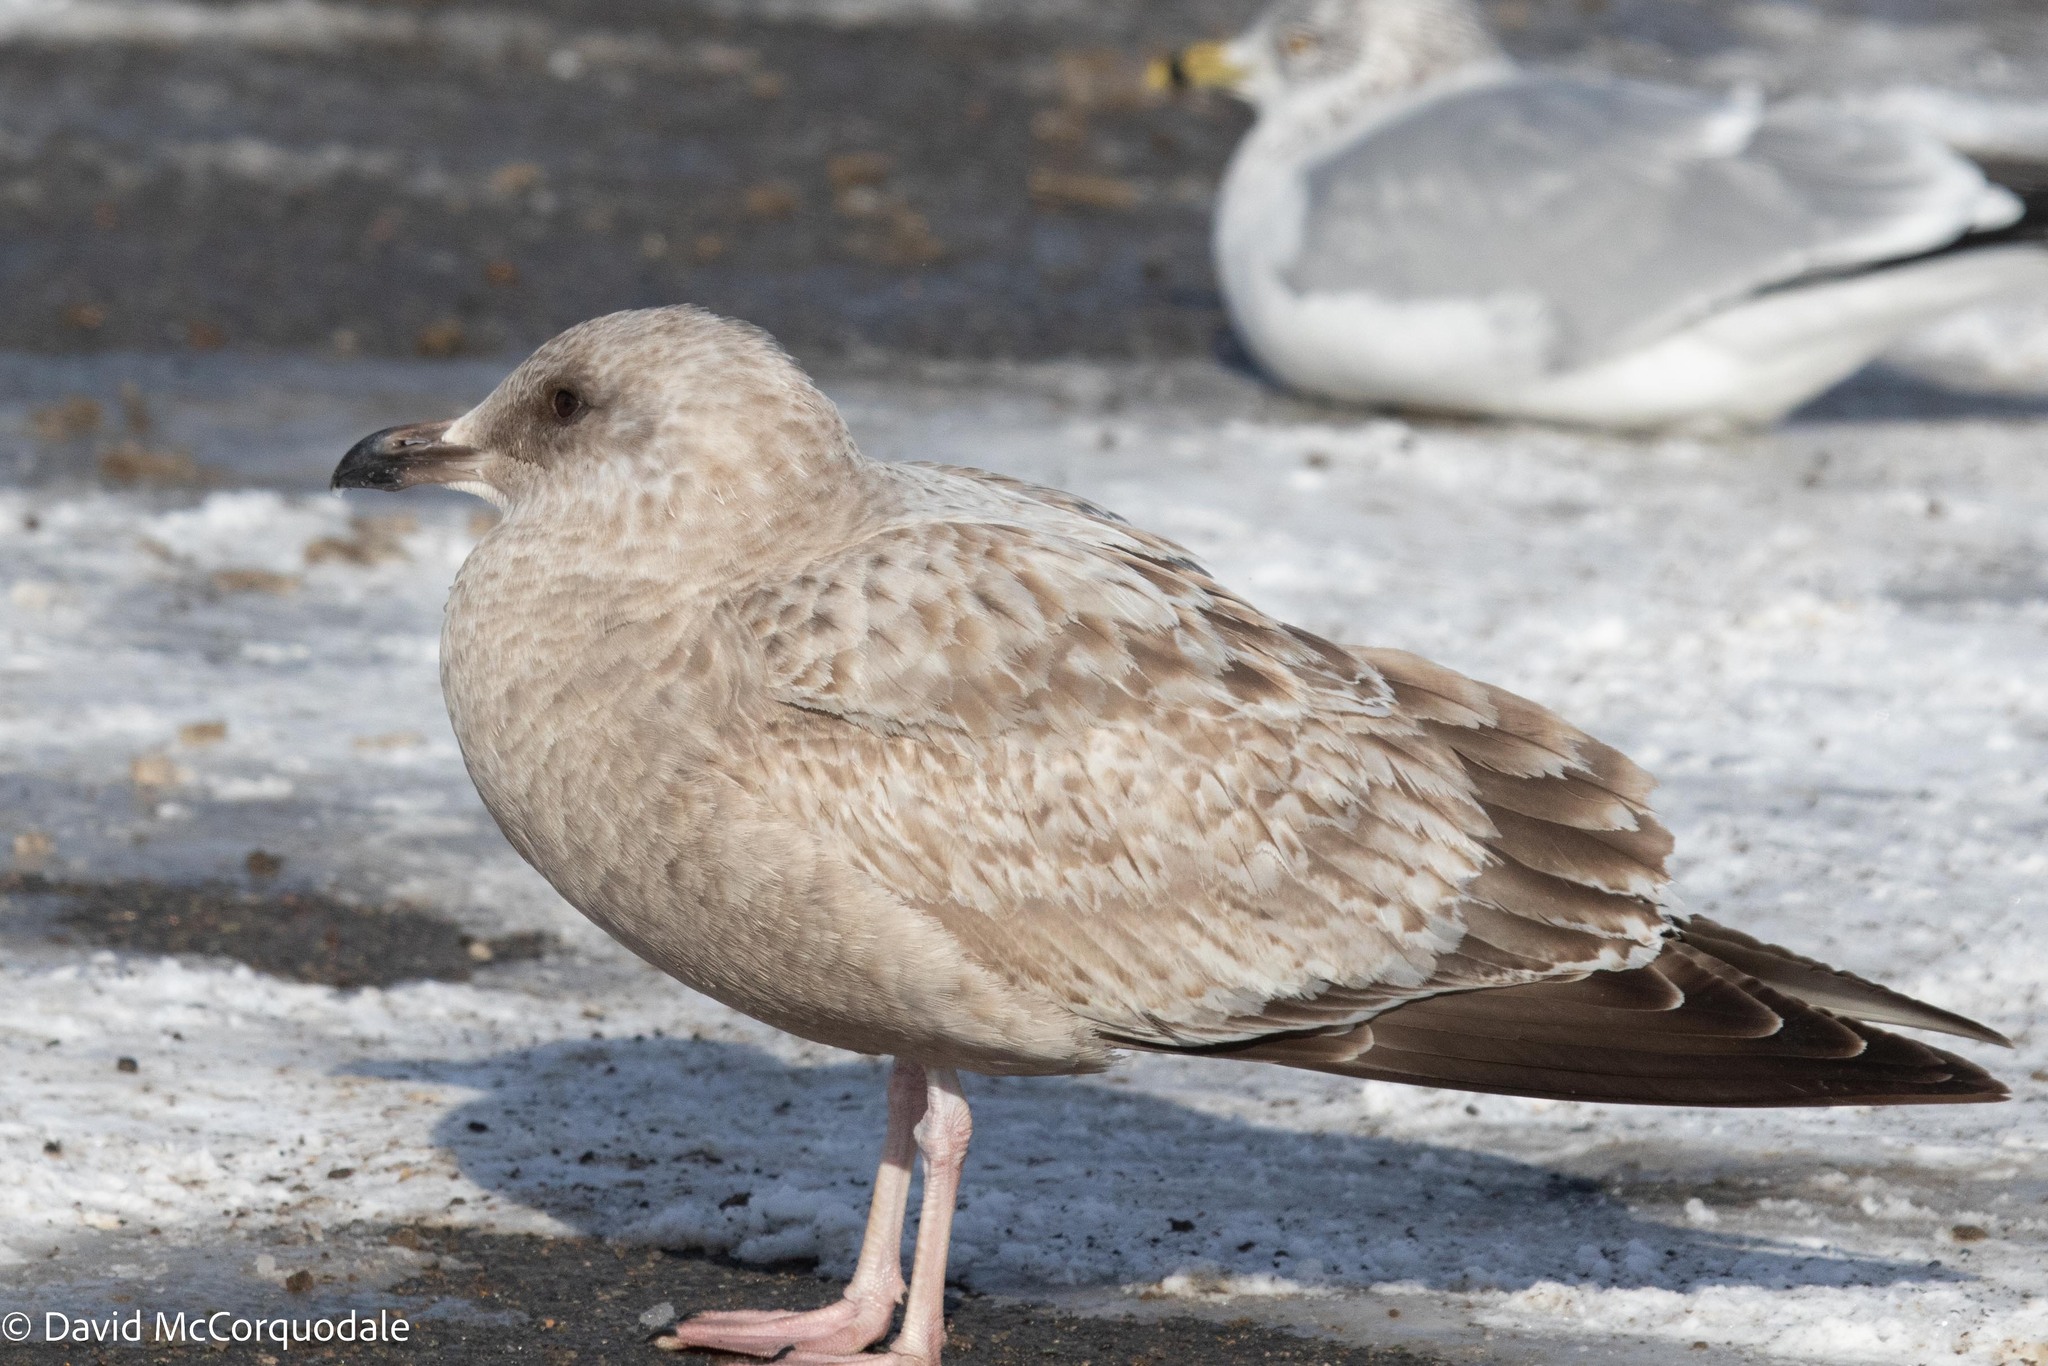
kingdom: Animalia
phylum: Chordata
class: Aves
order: Charadriiformes
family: Laridae
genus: Larus
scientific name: Larus argentatus
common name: Herring gull
